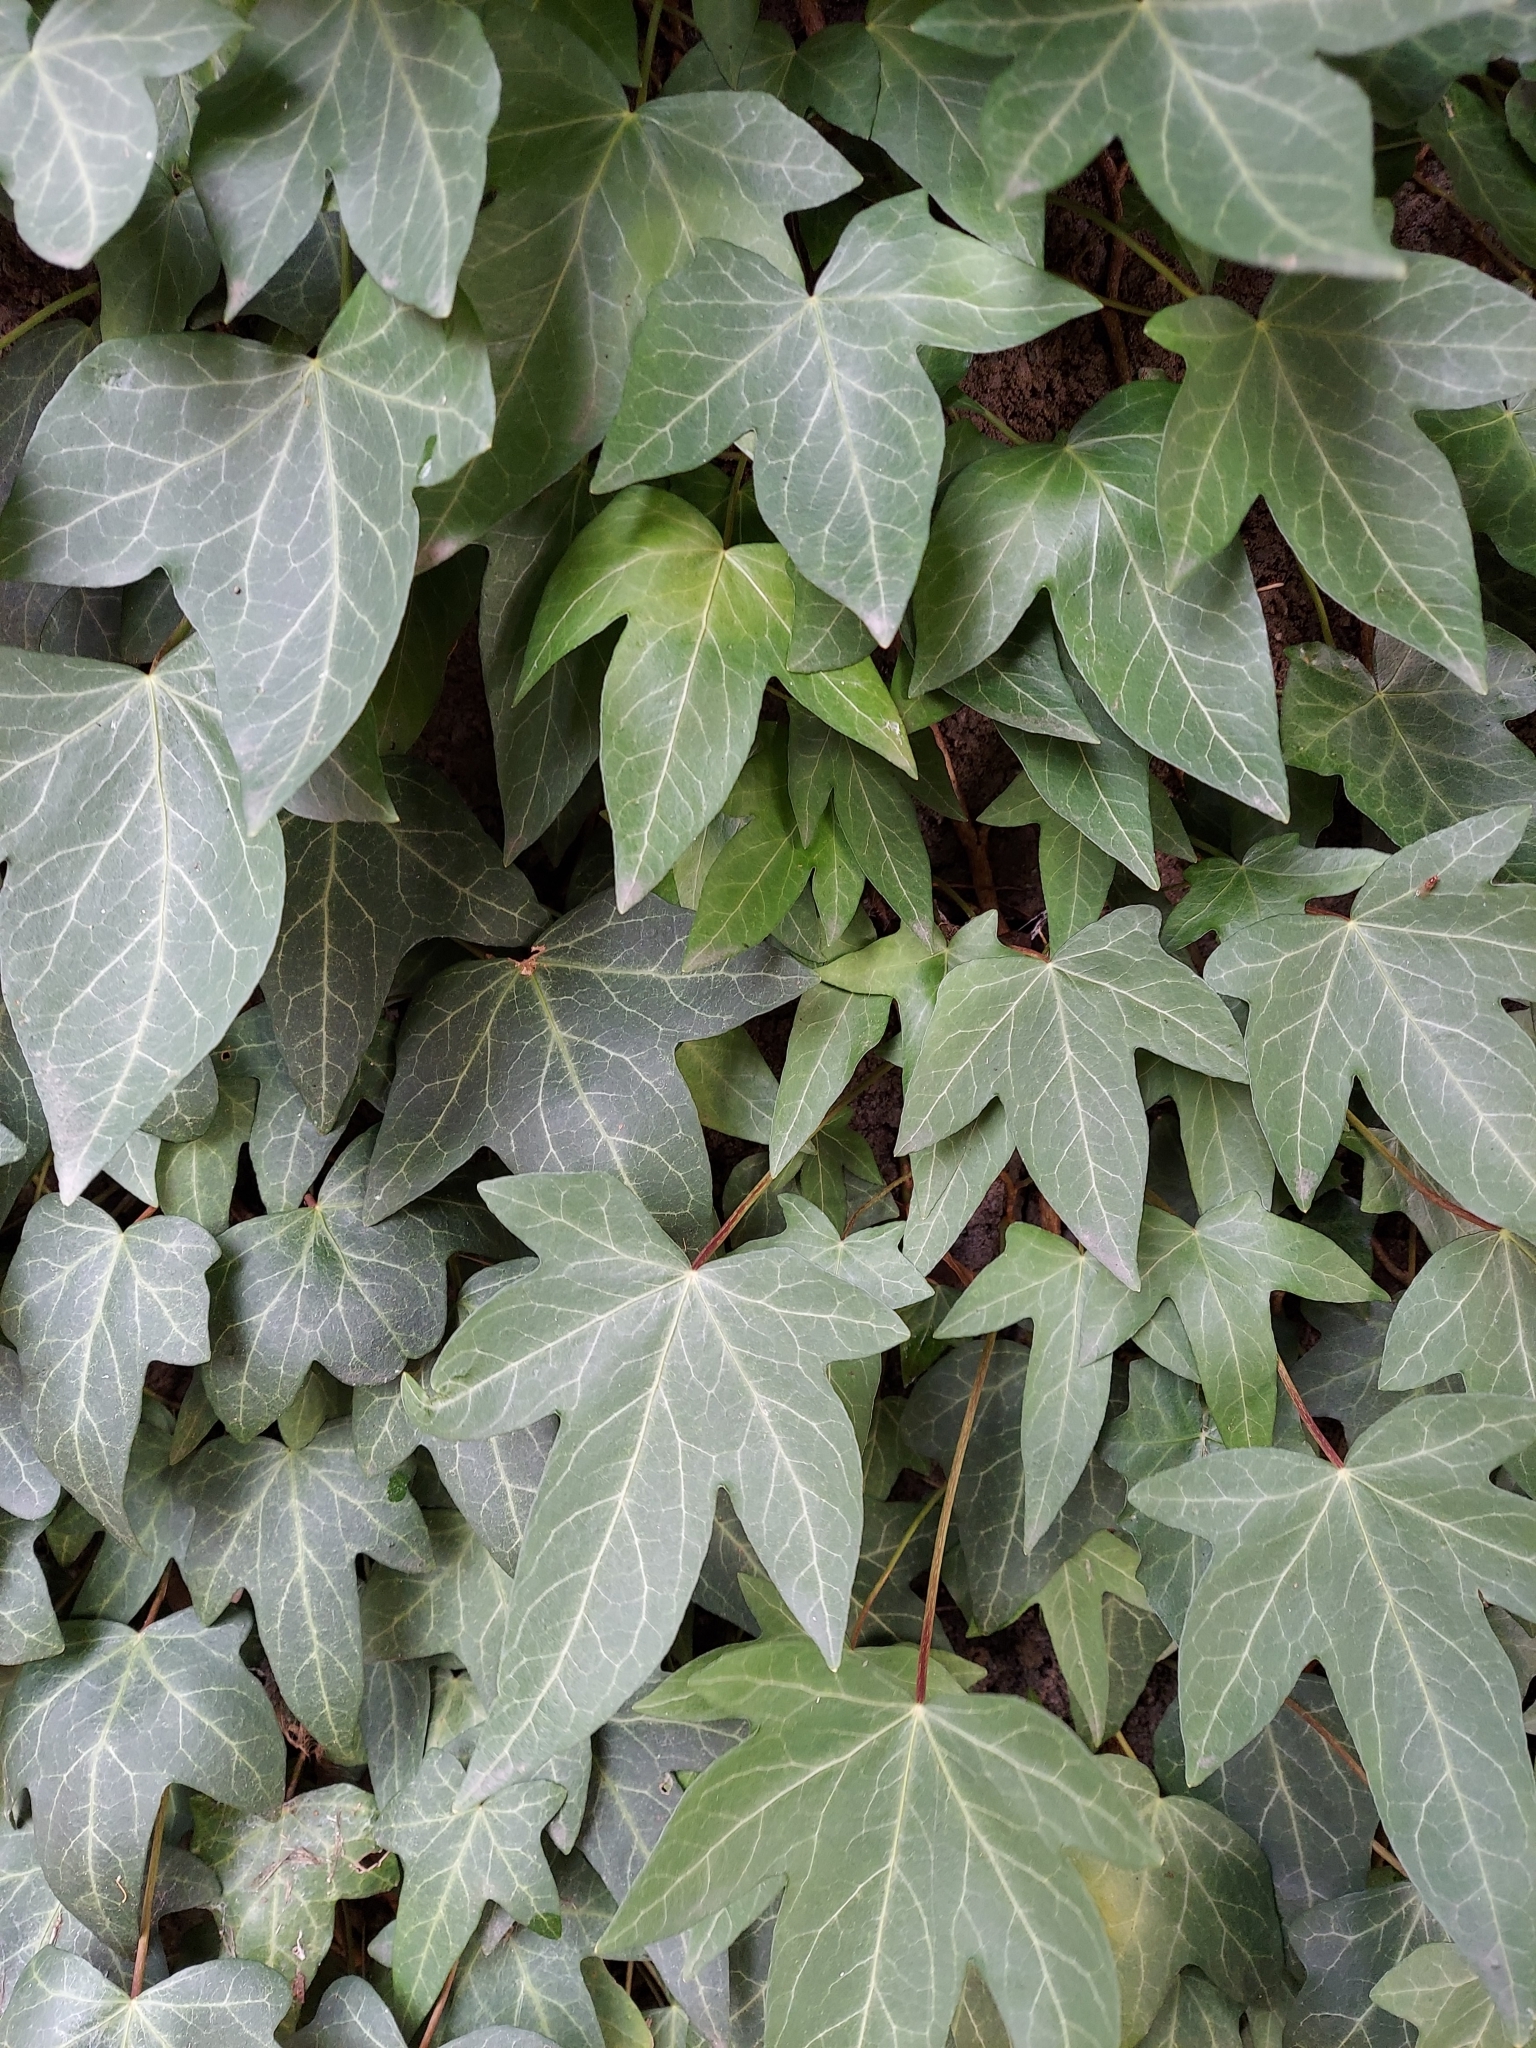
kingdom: Plantae
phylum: Tracheophyta
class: Magnoliopsida
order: Apiales
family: Araliaceae
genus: Hedera
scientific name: Hedera helix
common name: Ivy
